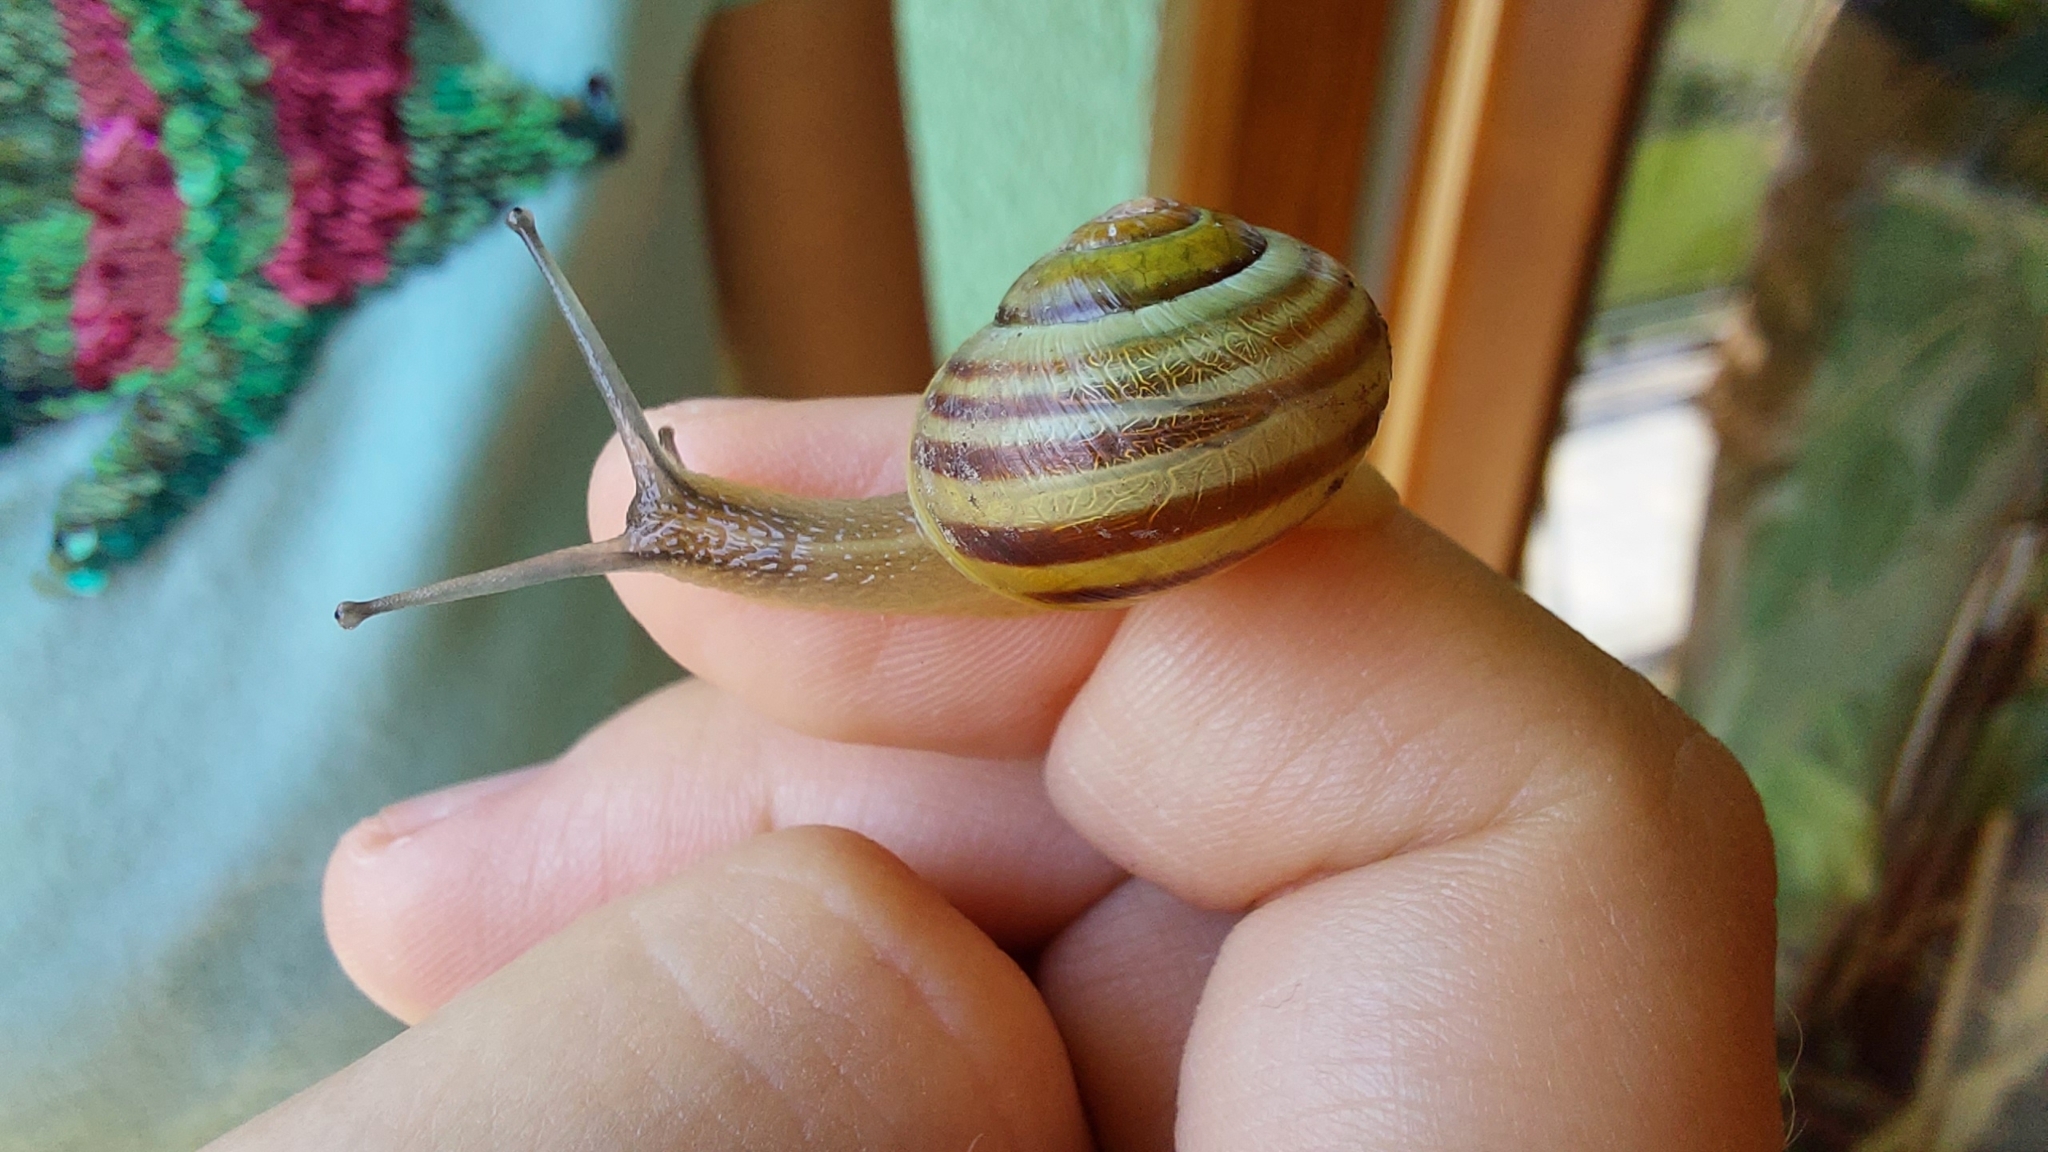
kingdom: Animalia
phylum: Mollusca
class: Gastropoda
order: Stylommatophora
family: Helicidae
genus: Cepaea
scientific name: Cepaea
